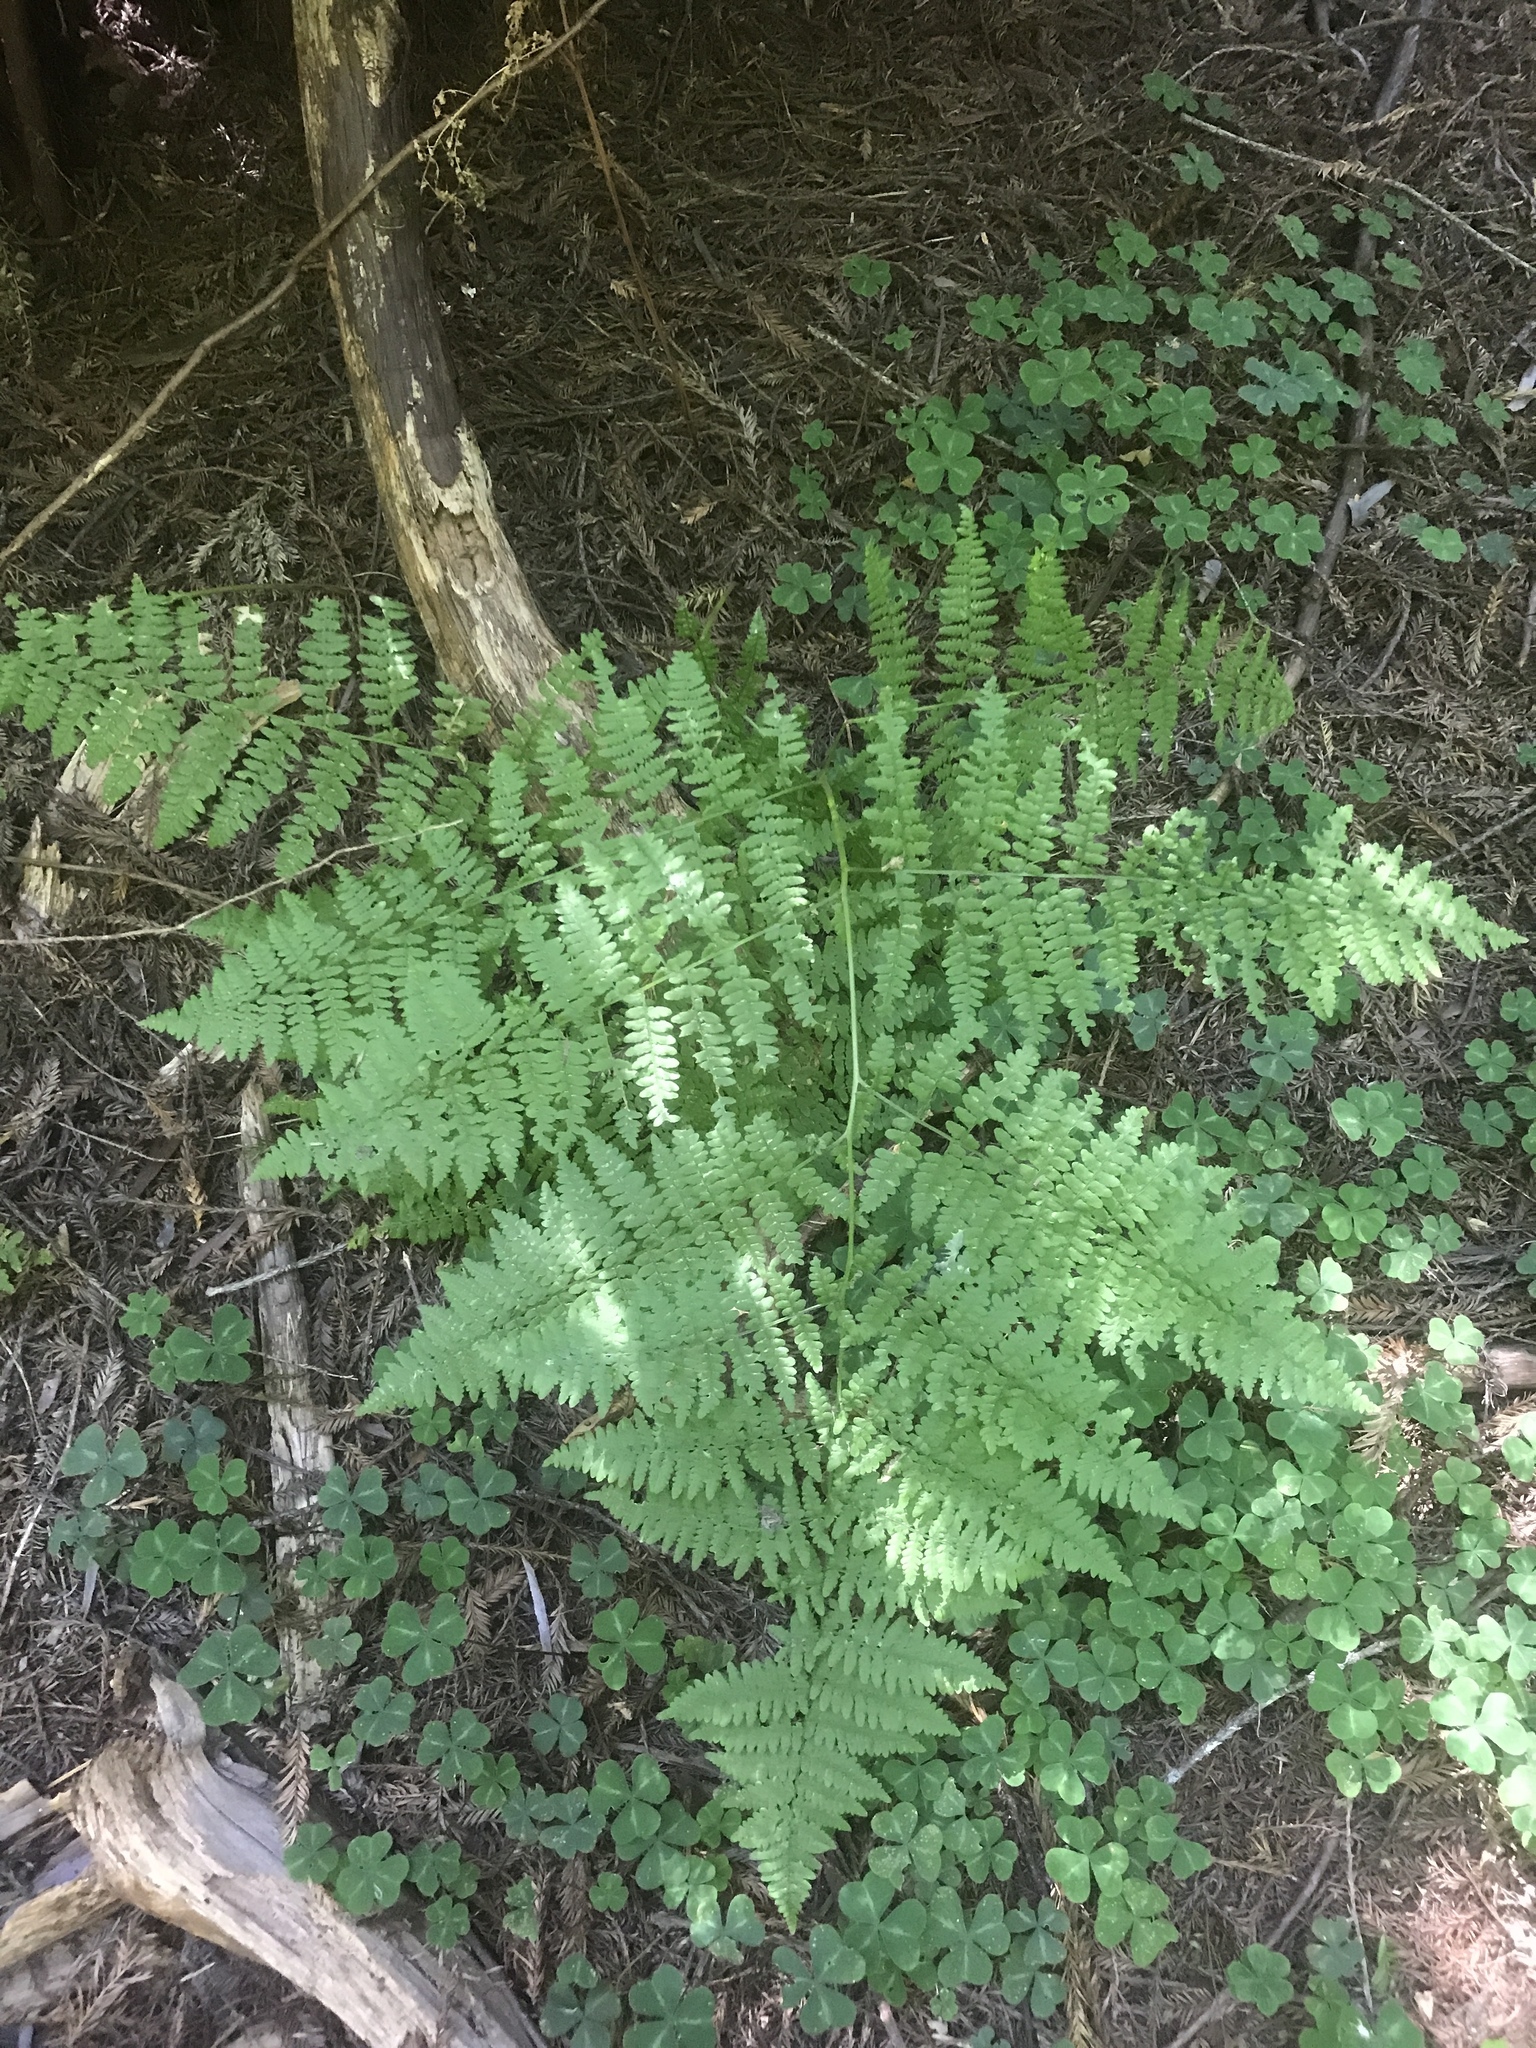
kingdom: Plantae
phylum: Tracheophyta
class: Polypodiopsida
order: Polypodiales
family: Dennstaedtiaceae
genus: Pteridium
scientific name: Pteridium aquilinum
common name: Bracken
